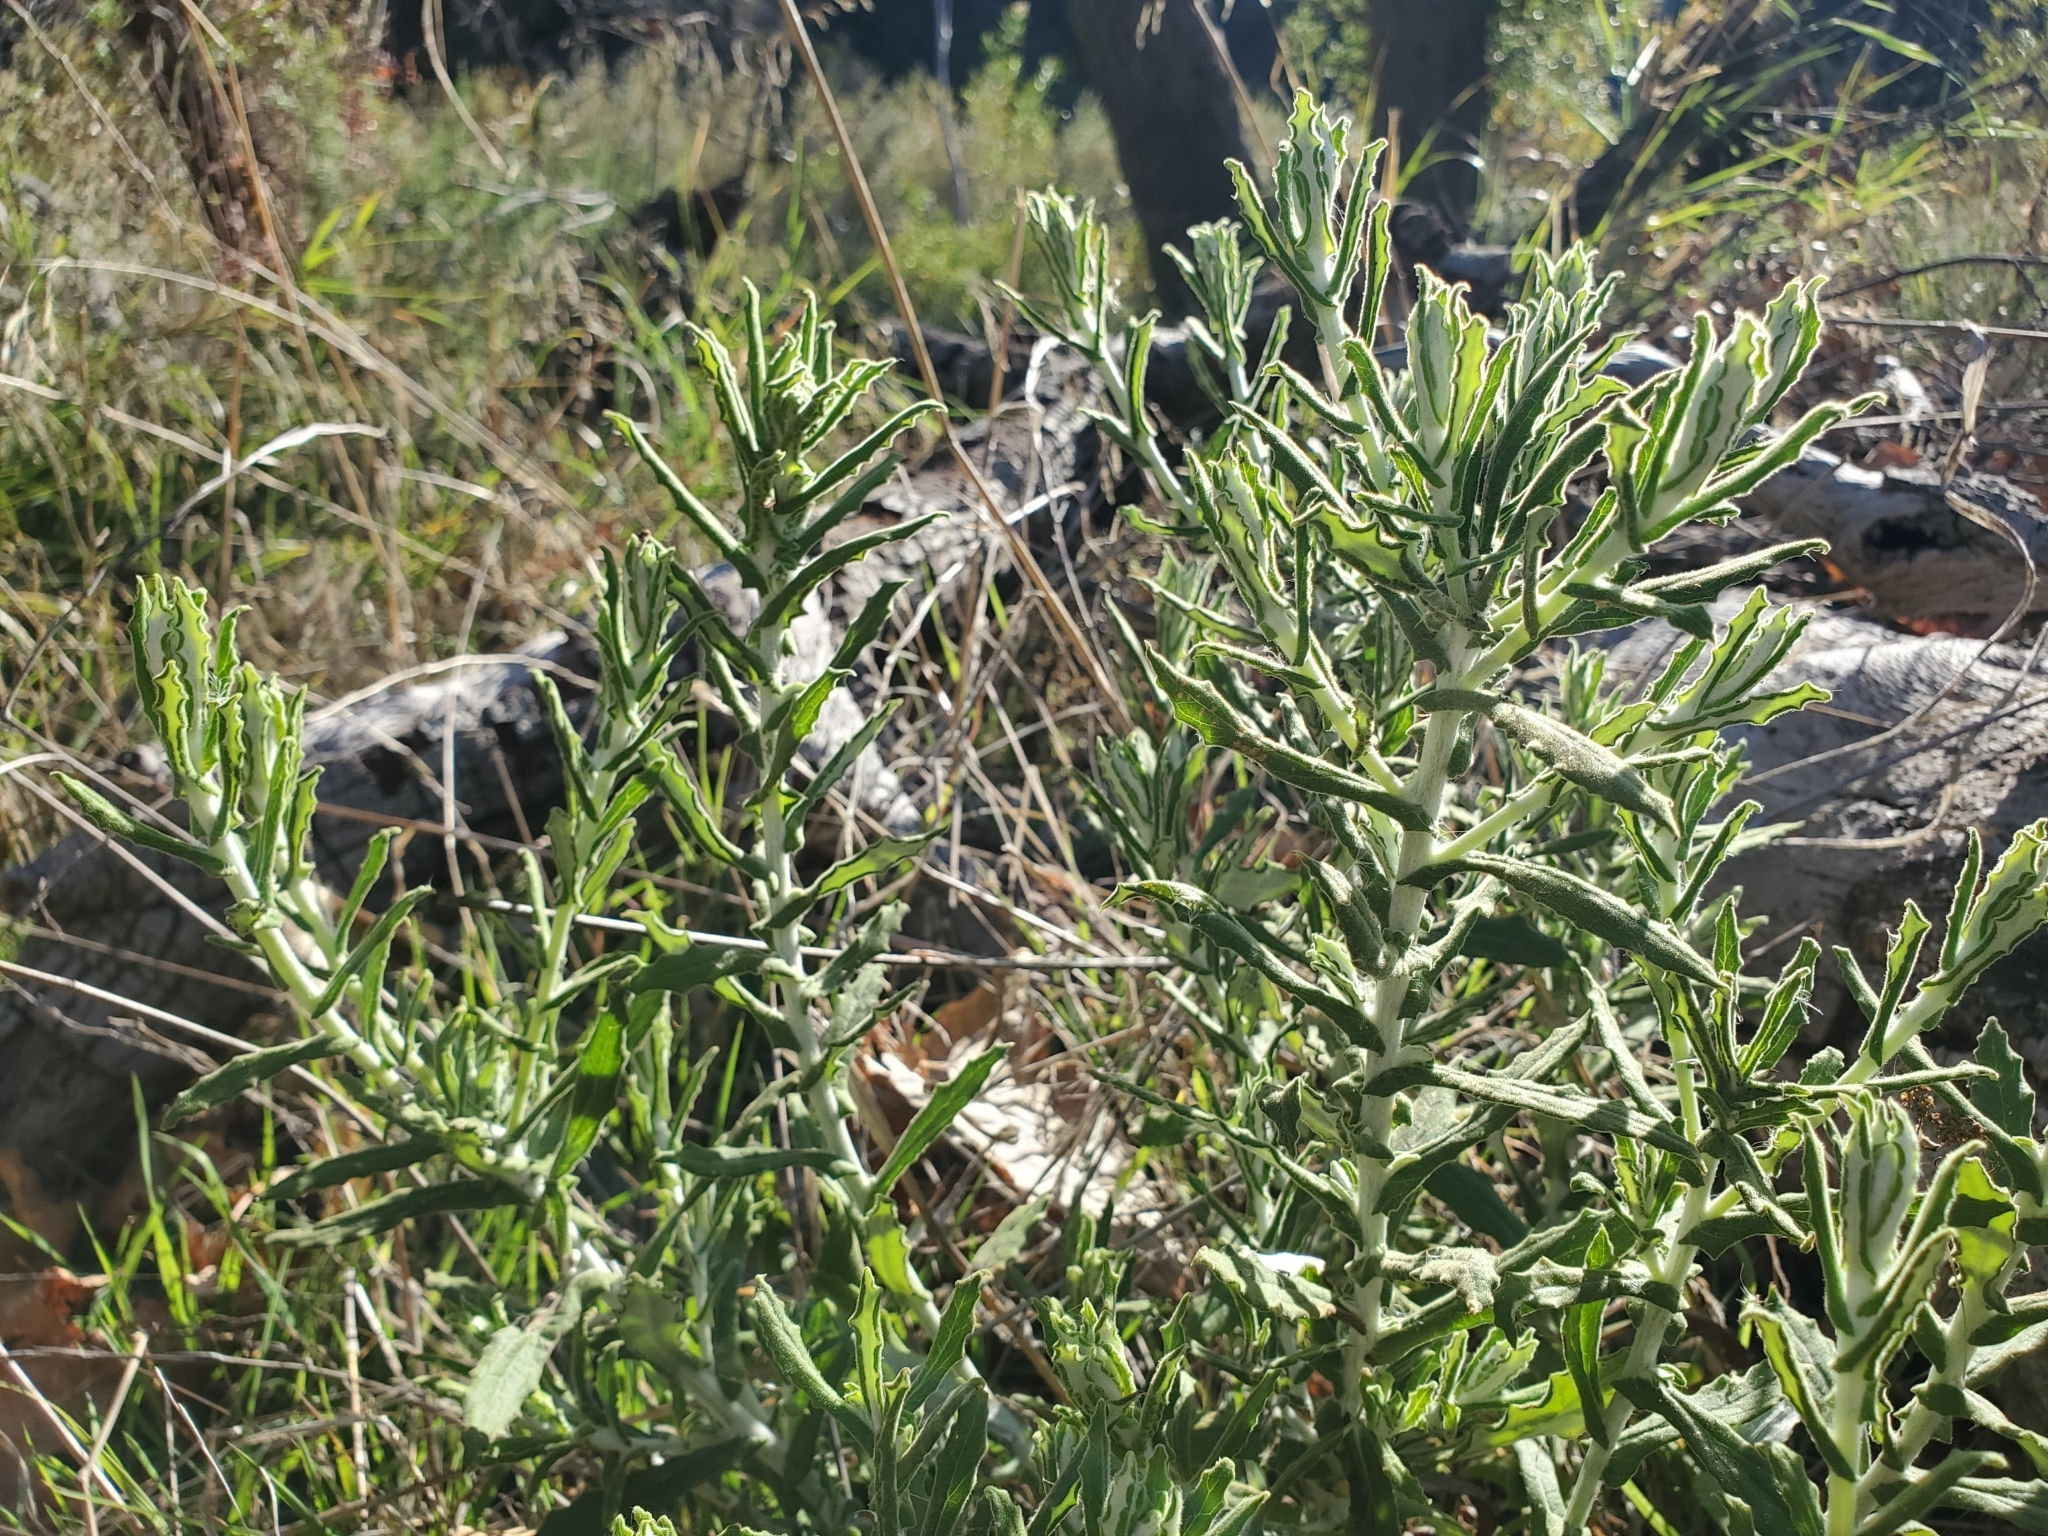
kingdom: Plantae
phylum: Tracheophyta
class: Magnoliopsida
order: Asterales
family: Asteraceae
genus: Pseudognaphalium
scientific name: Pseudognaphalium biolettii
